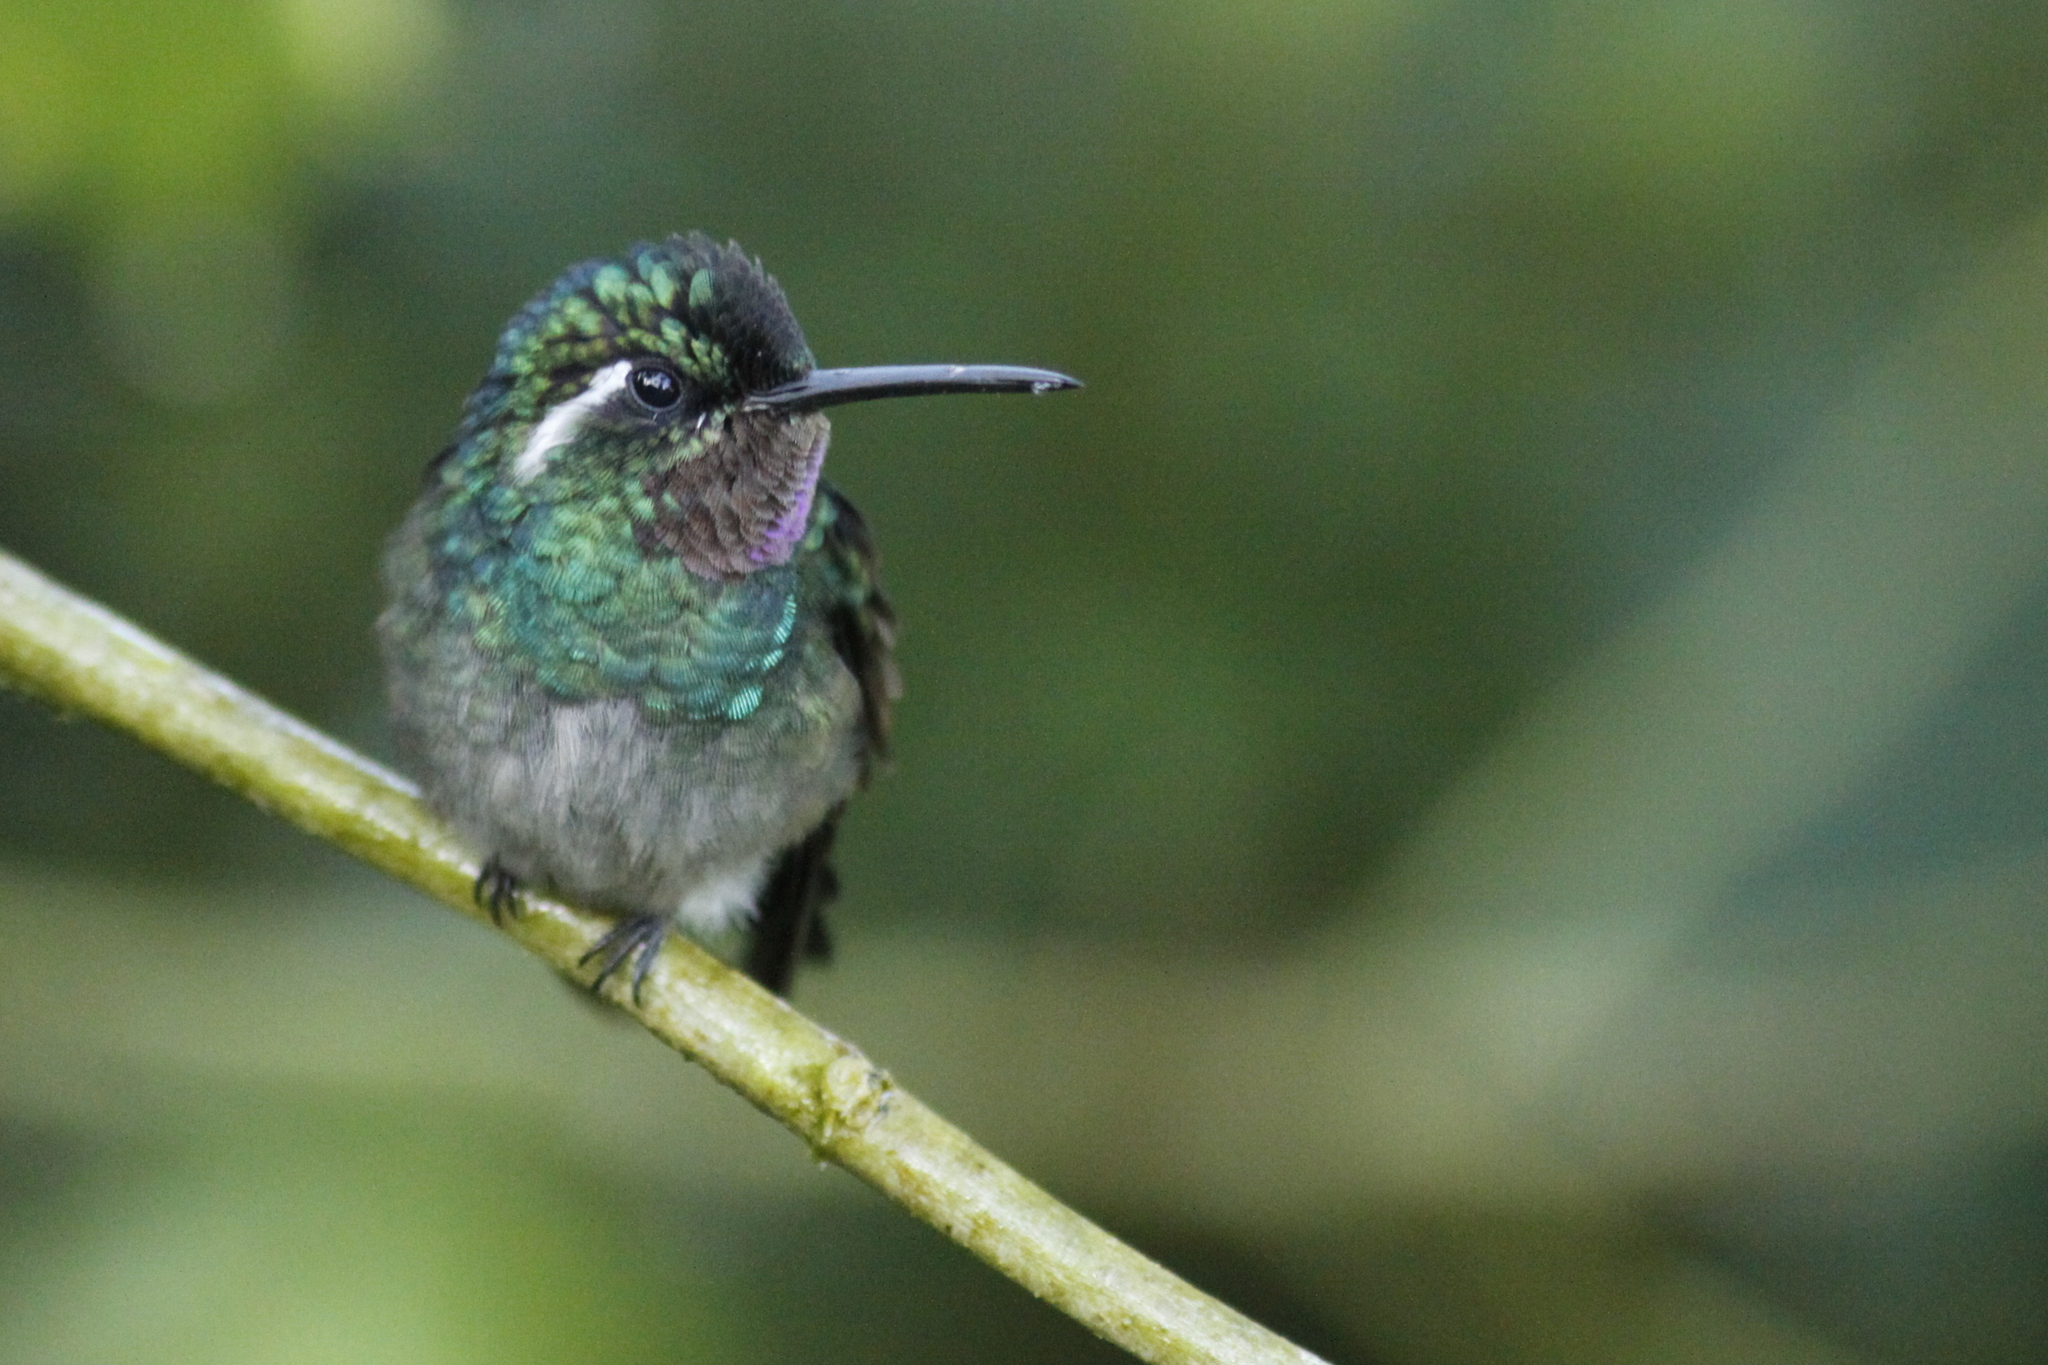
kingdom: Animalia
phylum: Chordata
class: Aves
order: Apodiformes
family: Trochilidae
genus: Lampornis
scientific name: Lampornis calolaemus
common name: Purple-throated mountain-gem
